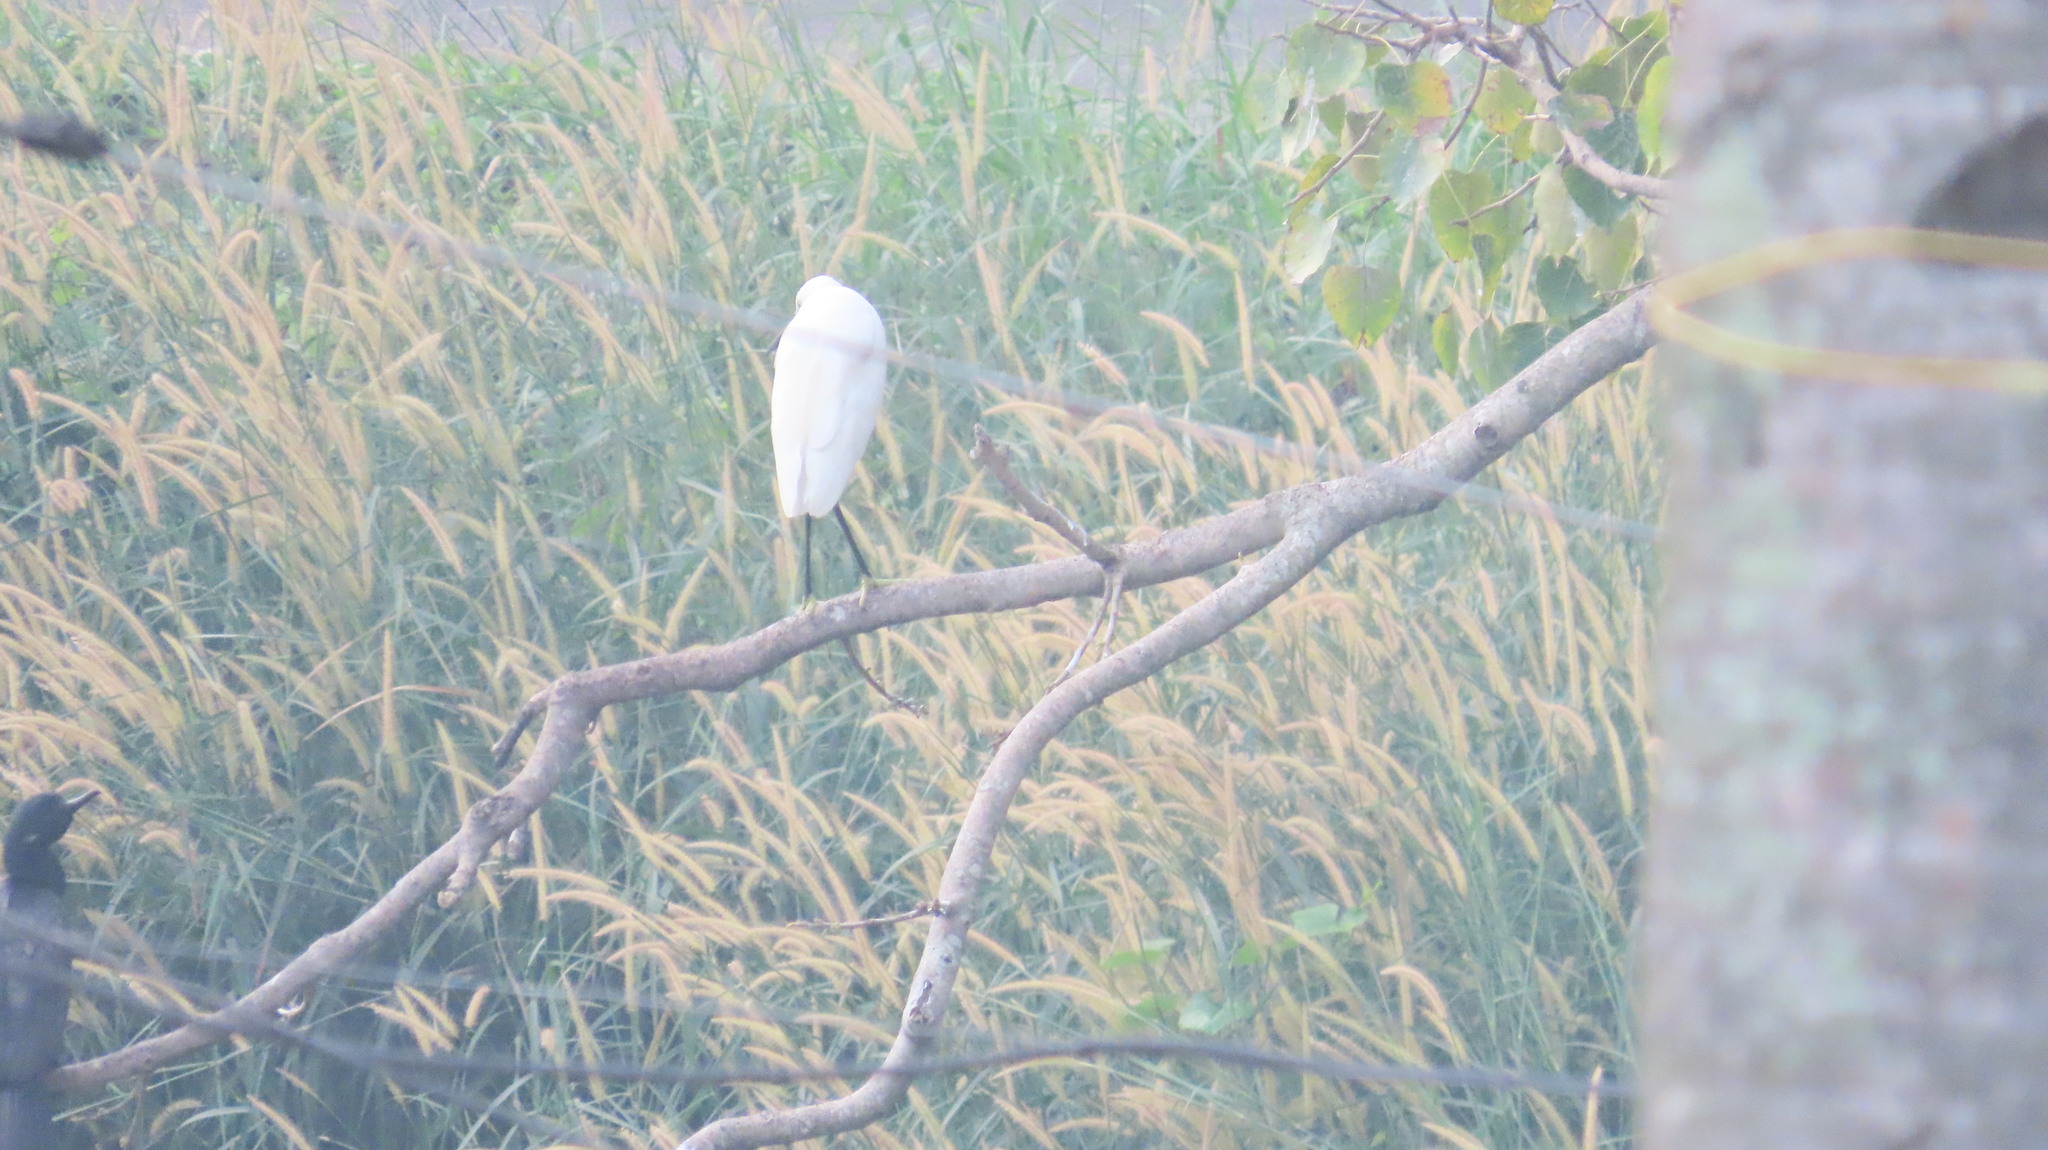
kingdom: Animalia
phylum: Chordata
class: Aves
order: Pelecaniformes
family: Ardeidae
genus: Egretta
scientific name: Egretta garzetta
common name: Little egret
